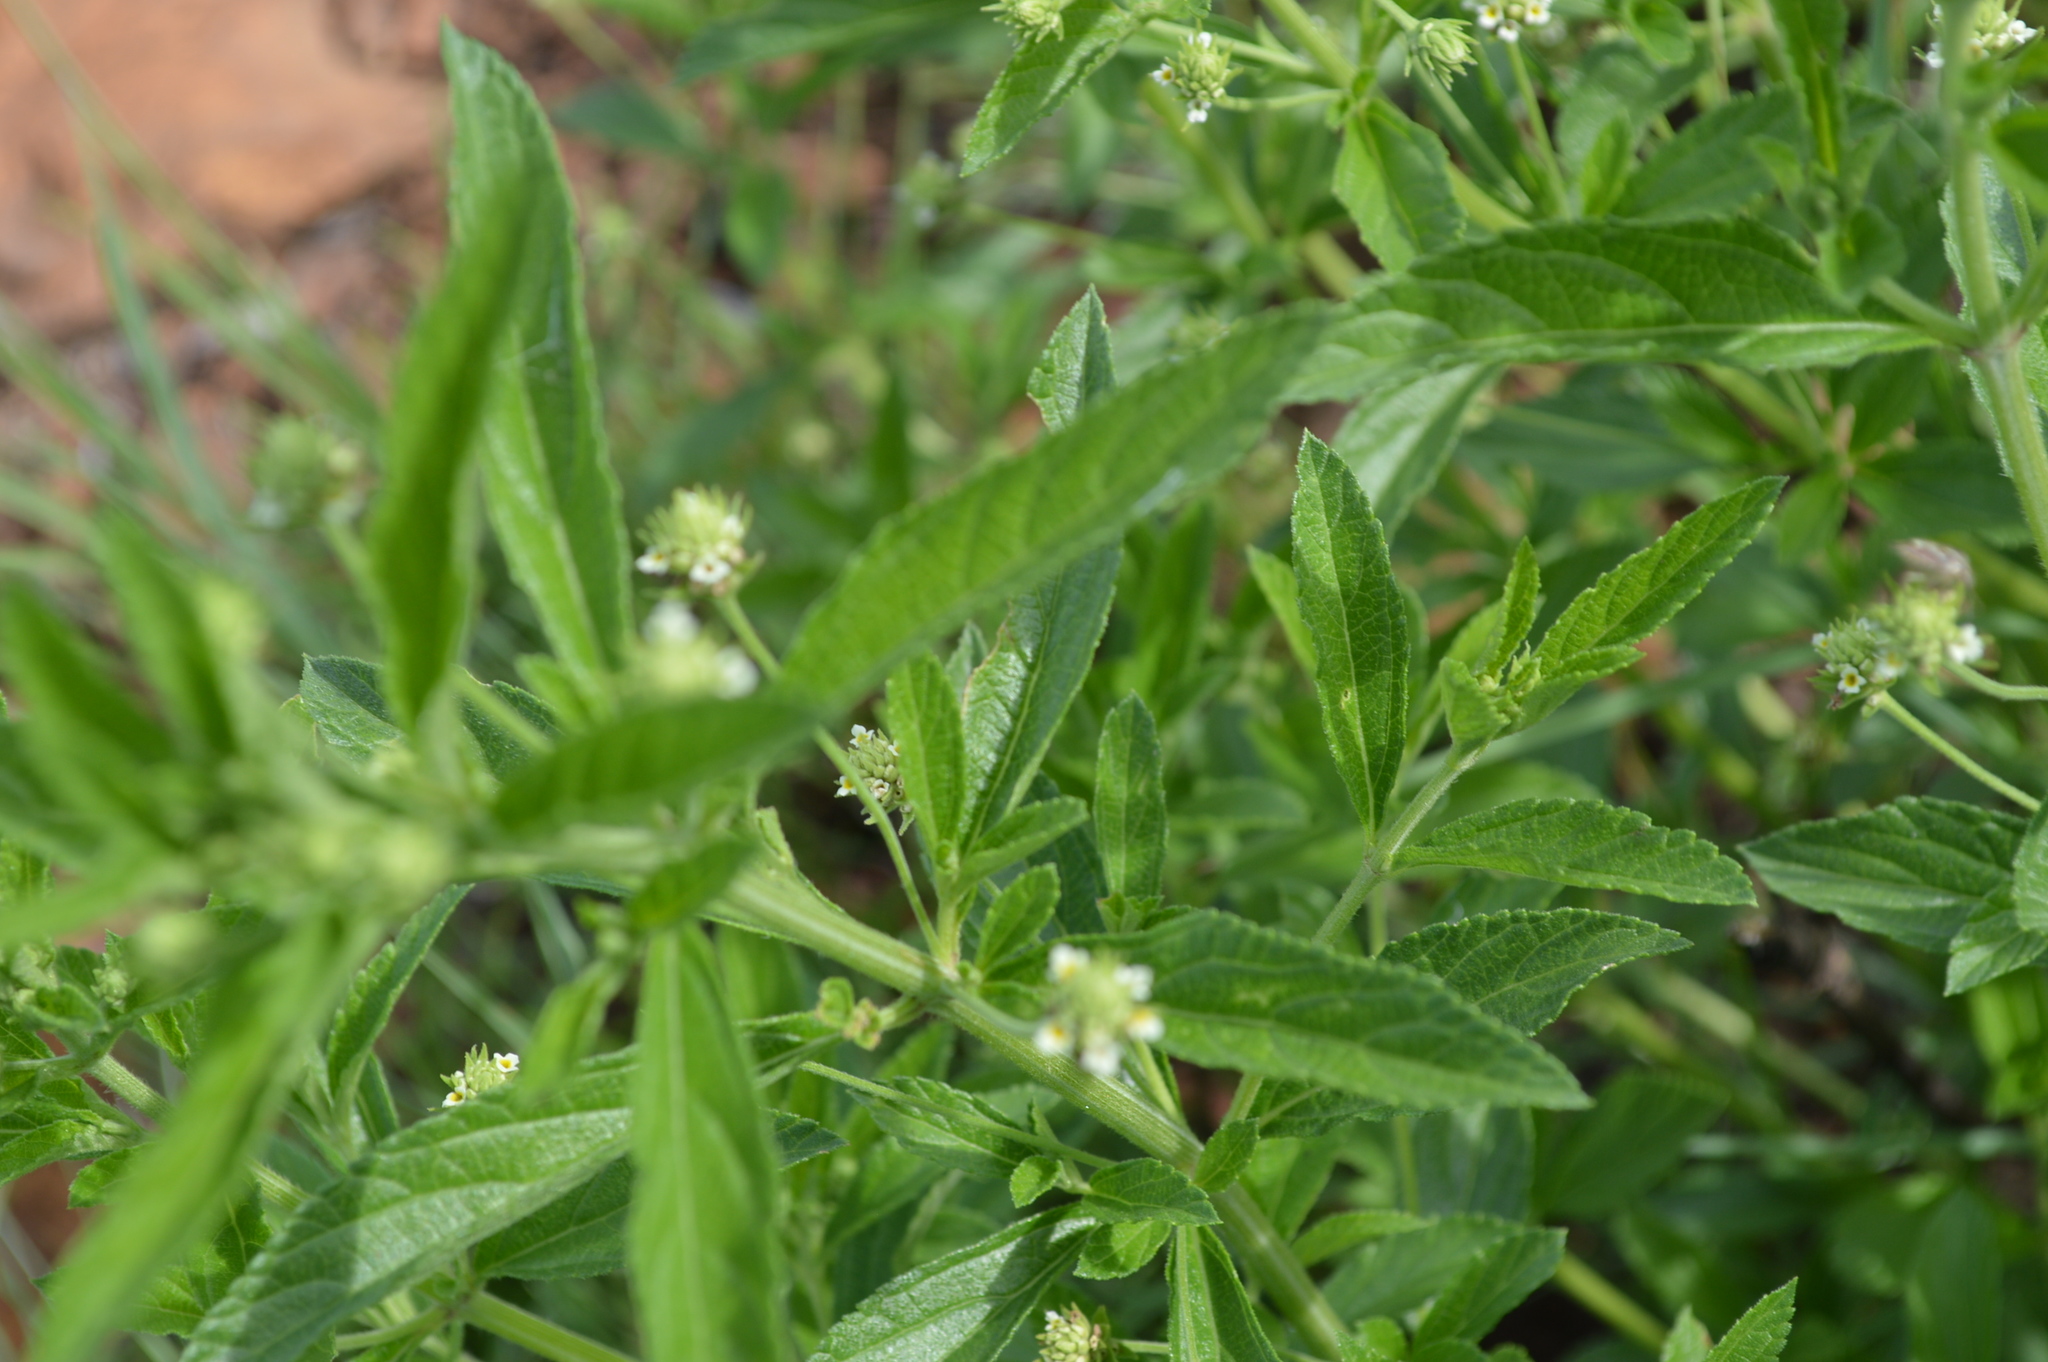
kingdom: Plantae
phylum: Tracheophyta
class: Magnoliopsida
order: Lamiales
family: Verbenaceae
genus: Lippia
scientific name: Lippia javanica
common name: Lemonbush
